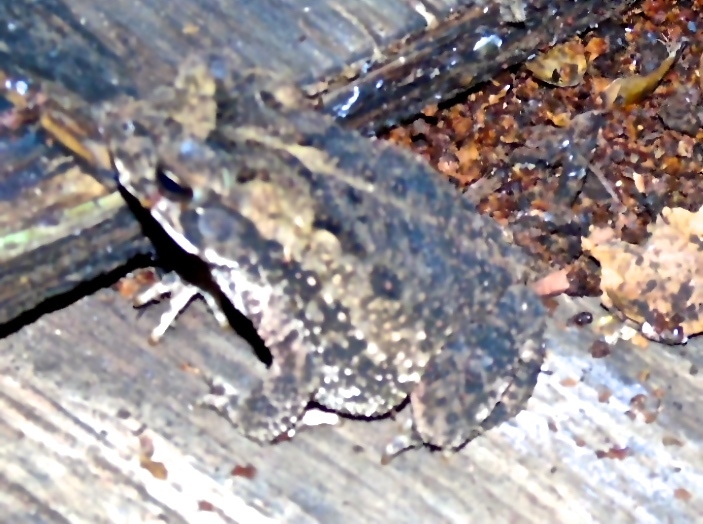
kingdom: Animalia
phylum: Chordata
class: Amphibia
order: Anura
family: Bufonidae
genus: Incilius
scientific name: Incilius mazatlanensis
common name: Sinaloa toad
